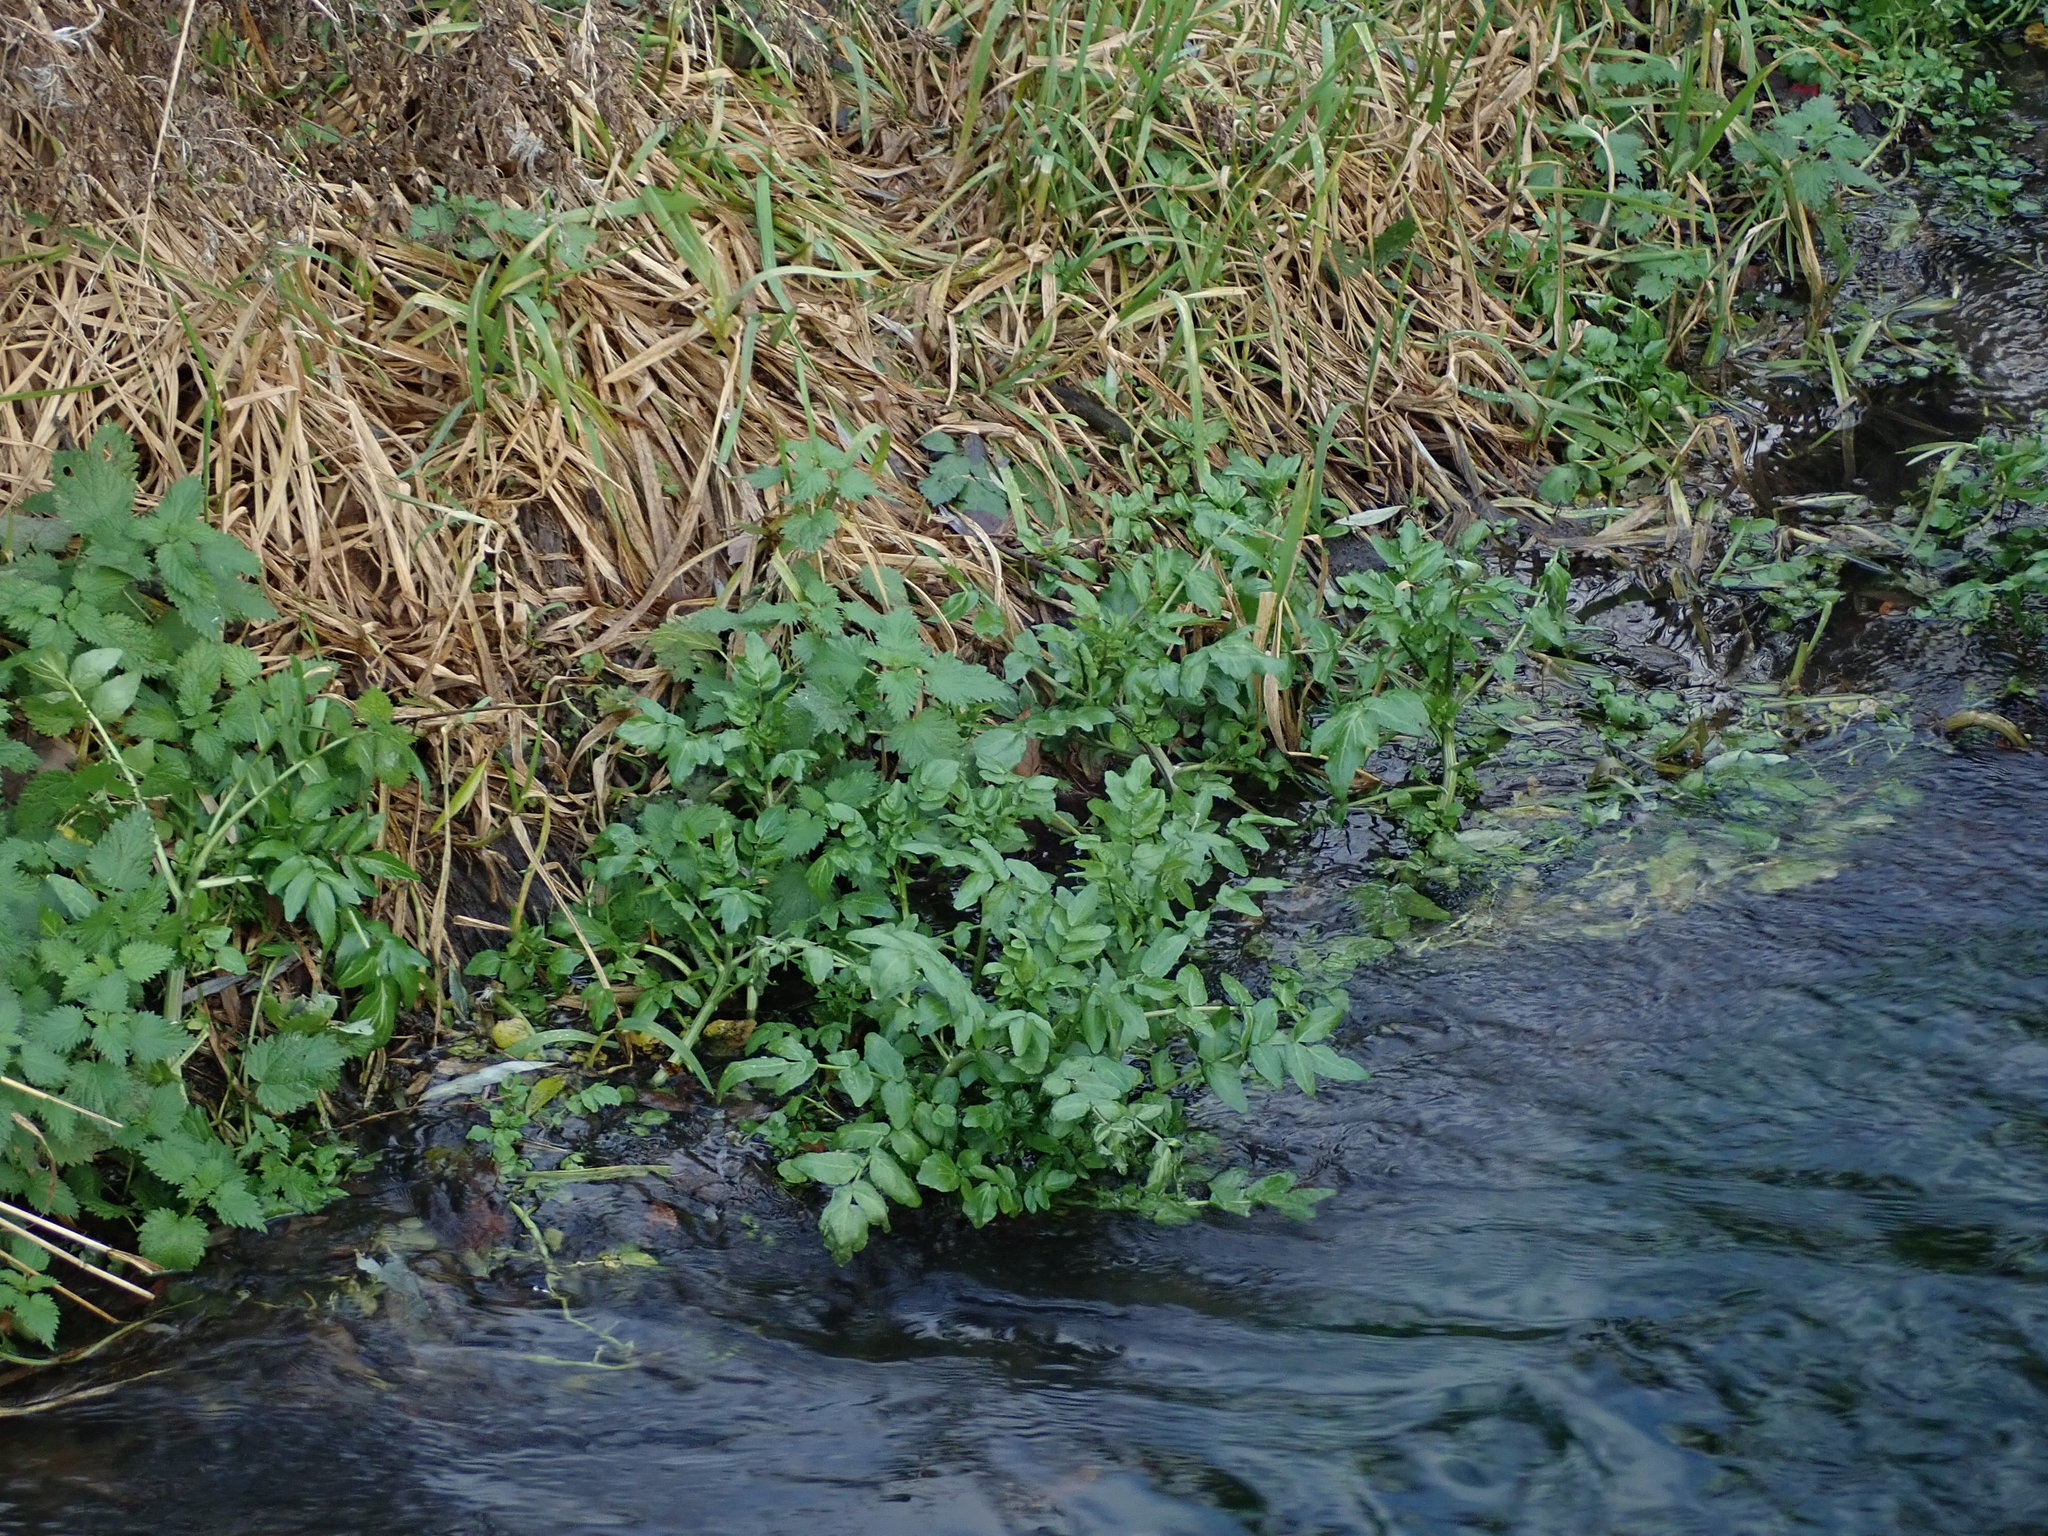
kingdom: Plantae
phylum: Tracheophyta
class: Magnoliopsida
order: Apiales
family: Apiaceae
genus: Helosciadium
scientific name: Helosciadium nodiflorum
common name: Fool's-watercress
